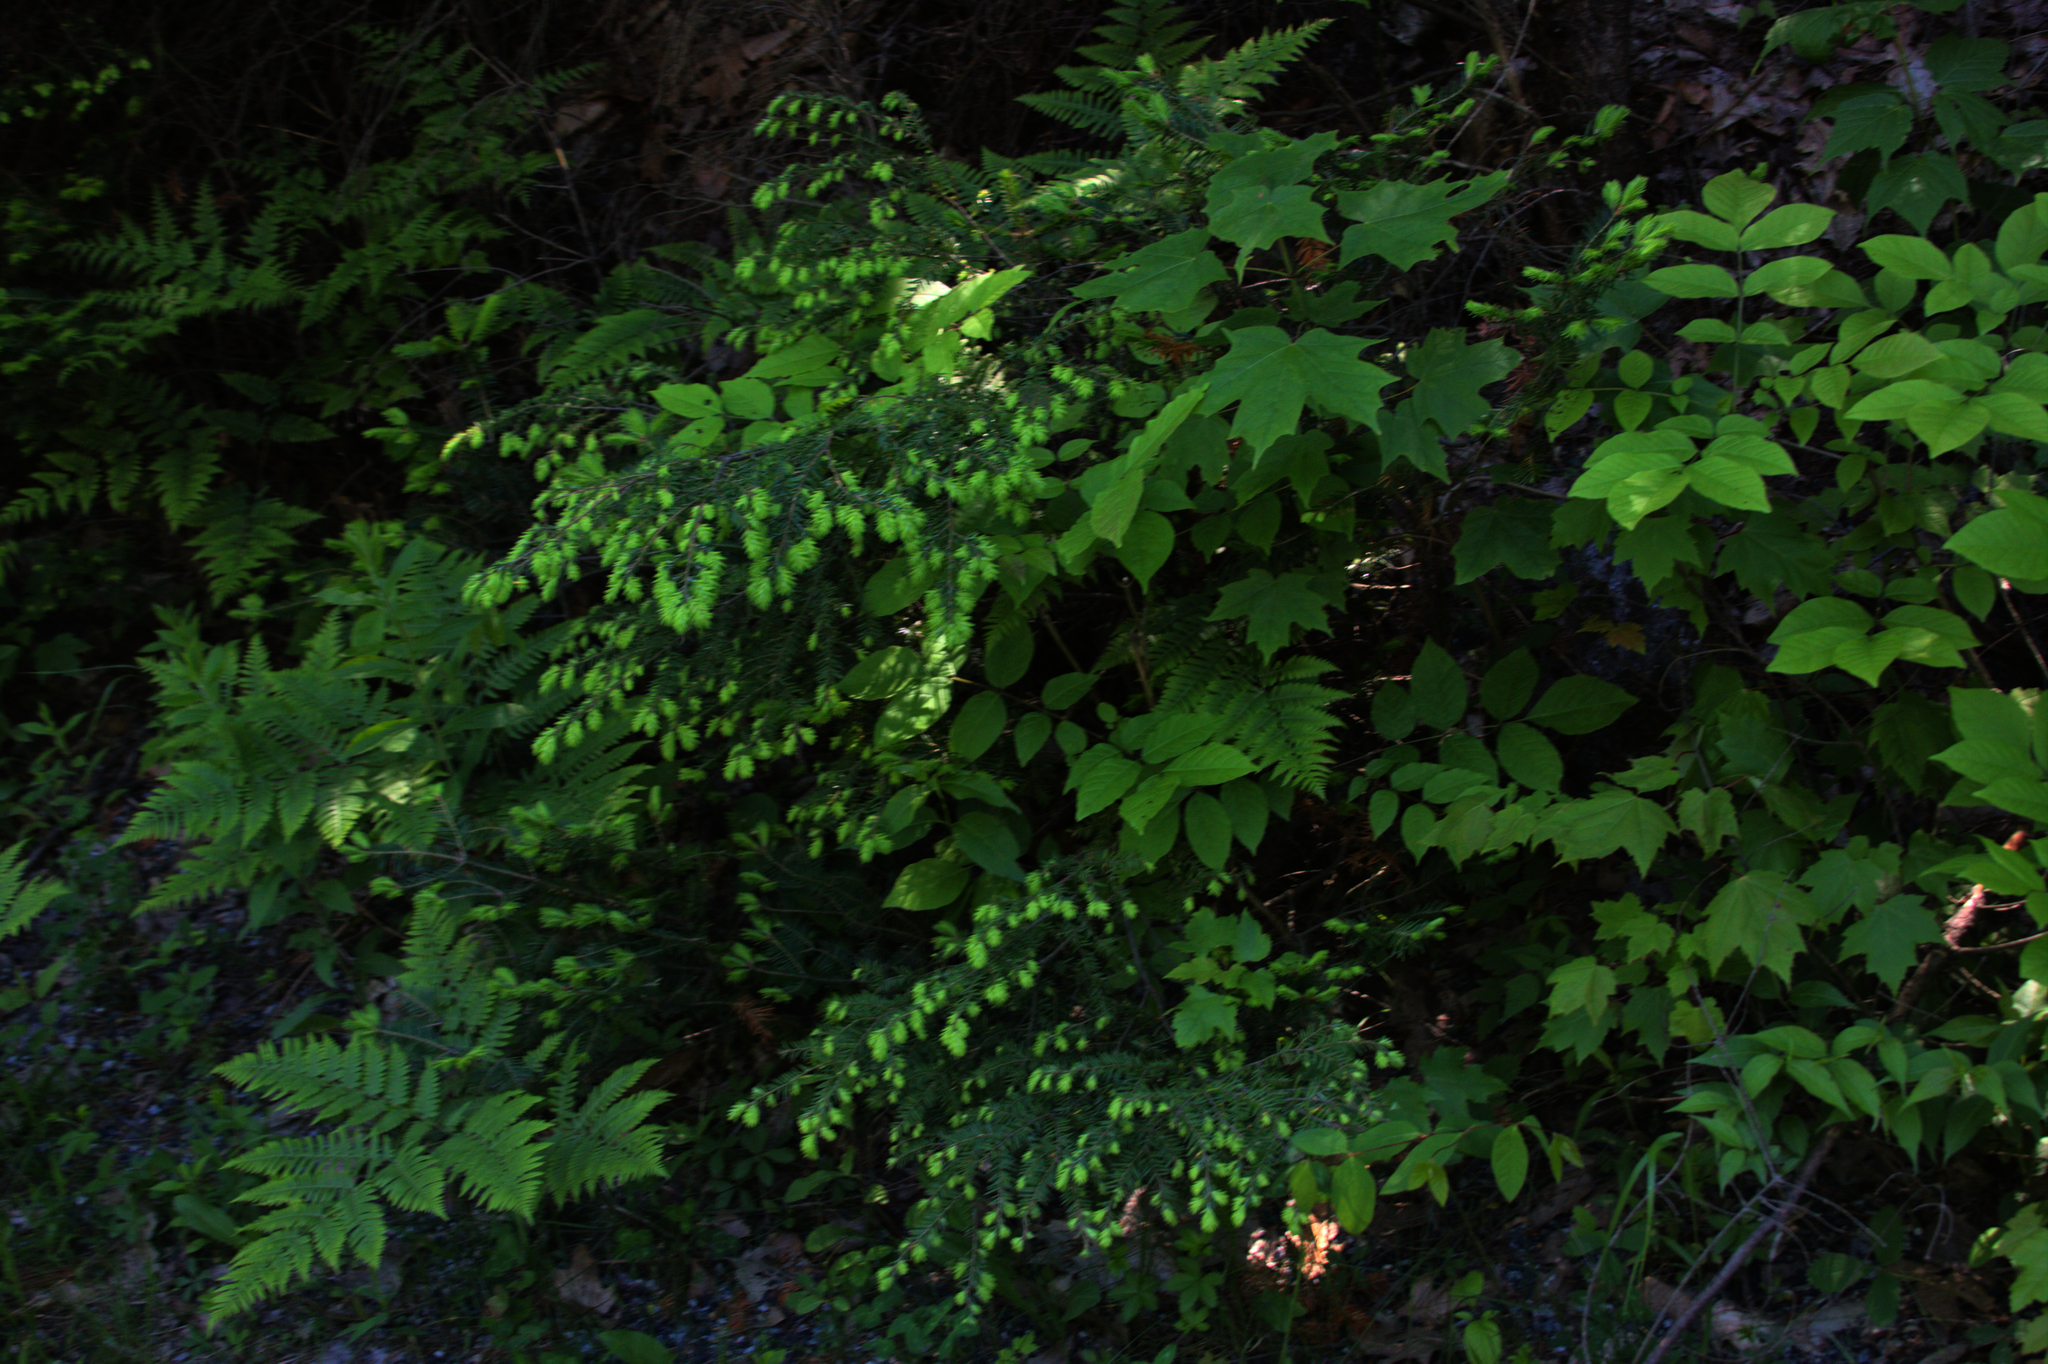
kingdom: Plantae
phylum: Tracheophyta
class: Pinopsida
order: Pinales
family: Pinaceae
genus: Tsuga
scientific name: Tsuga canadensis
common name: Eastern hemlock
